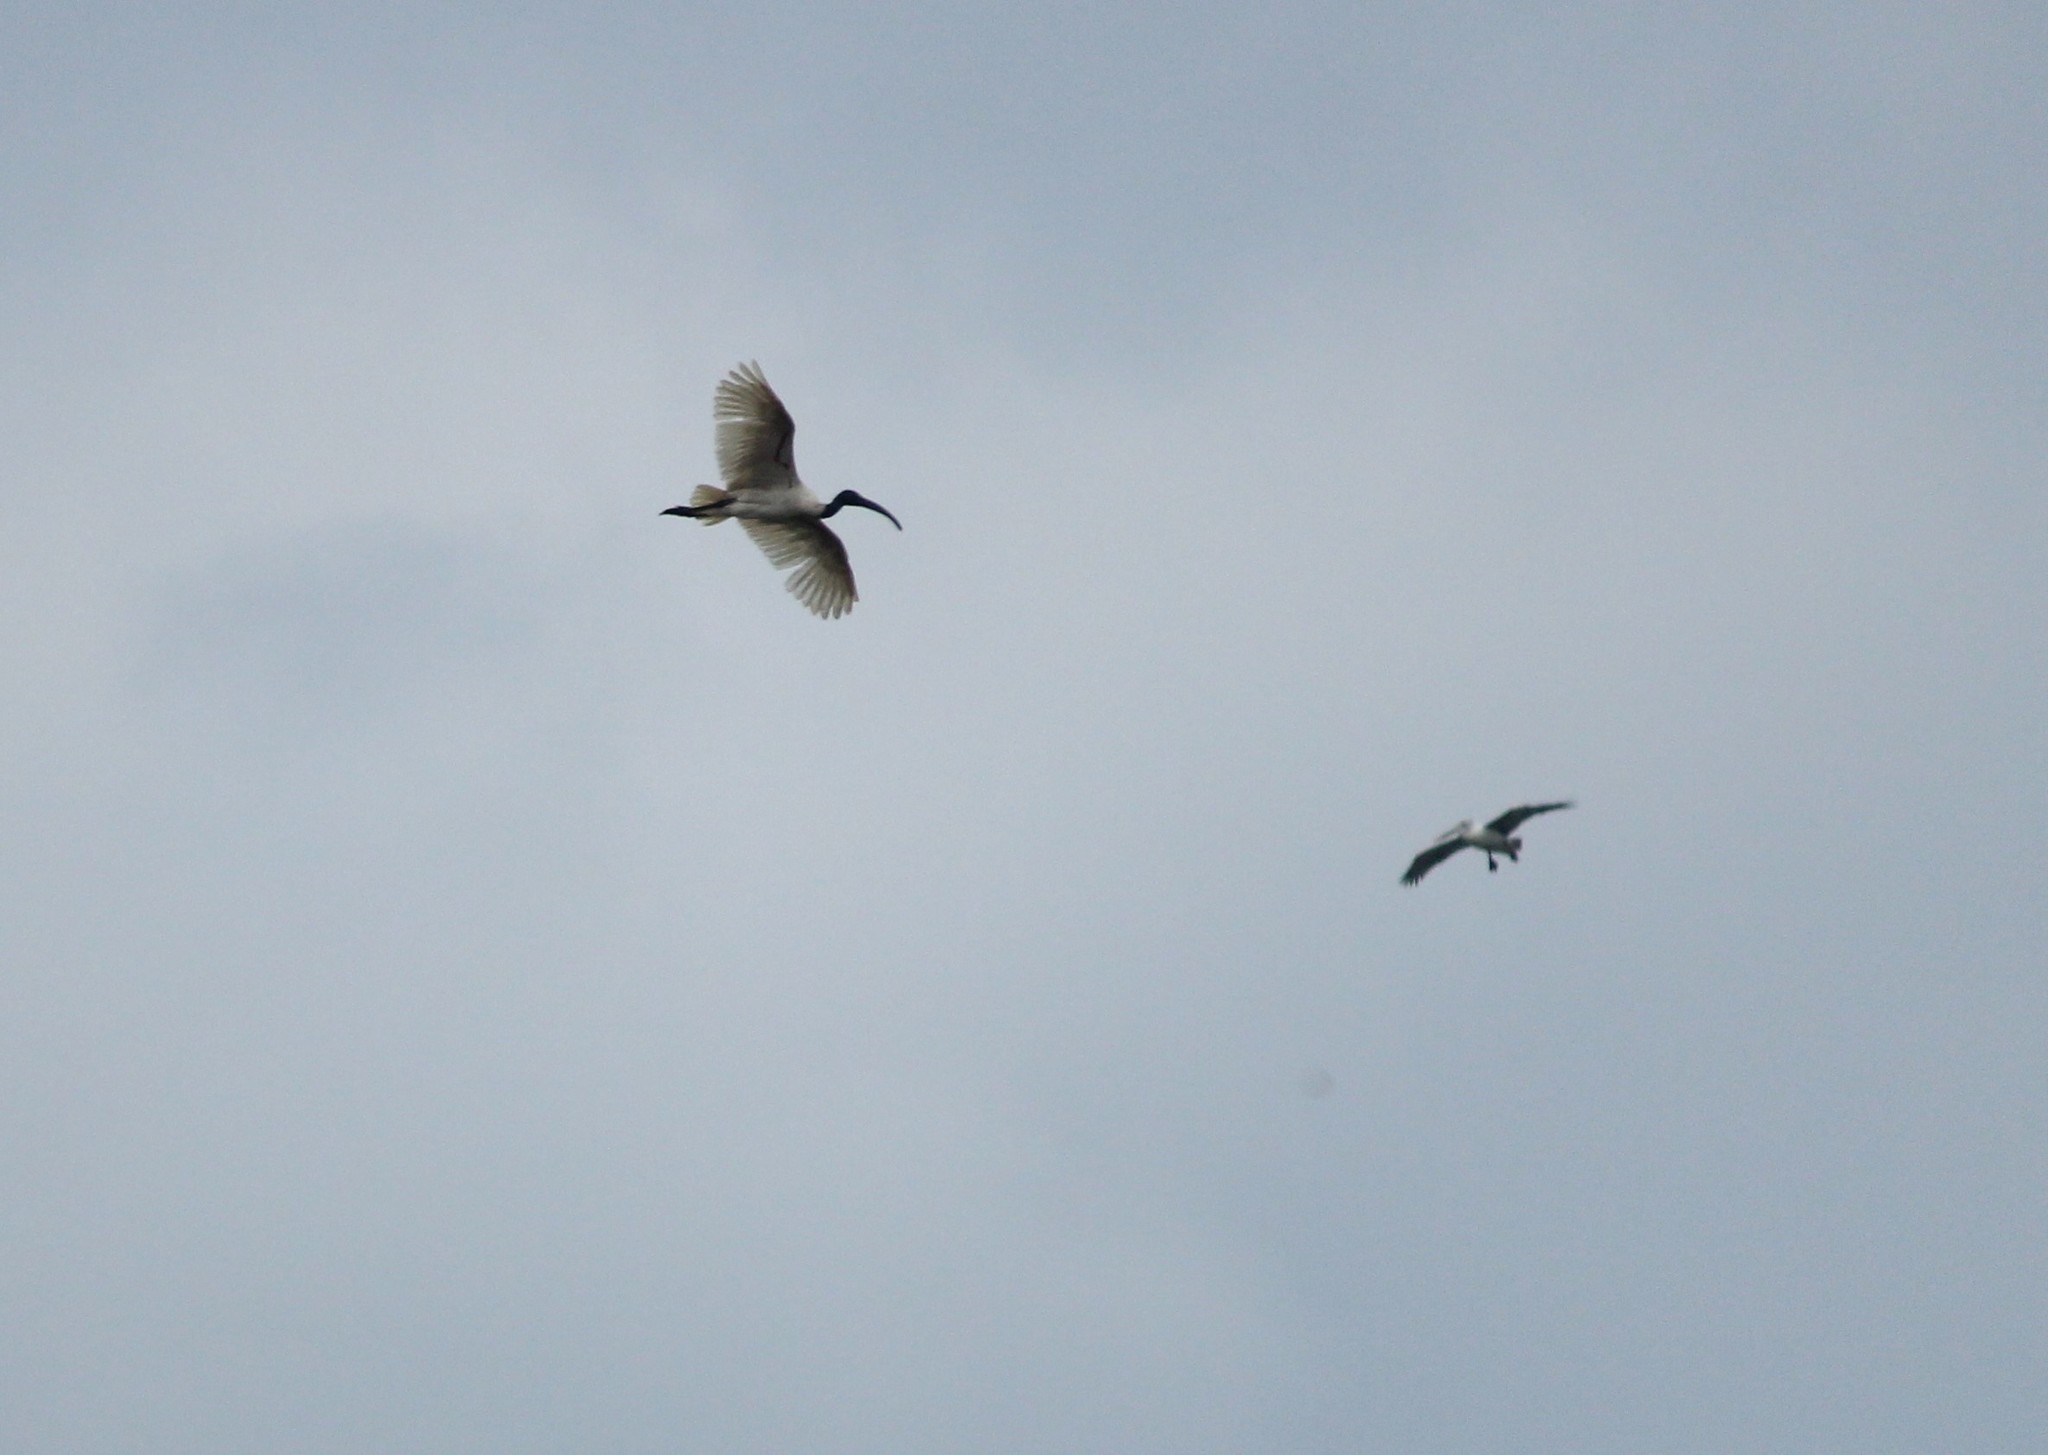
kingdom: Animalia
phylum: Chordata
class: Aves
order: Pelecaniformes
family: Threskiornithidae
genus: Threskiornis
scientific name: Threskiornis melanocephalus
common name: Black-headed ibis
